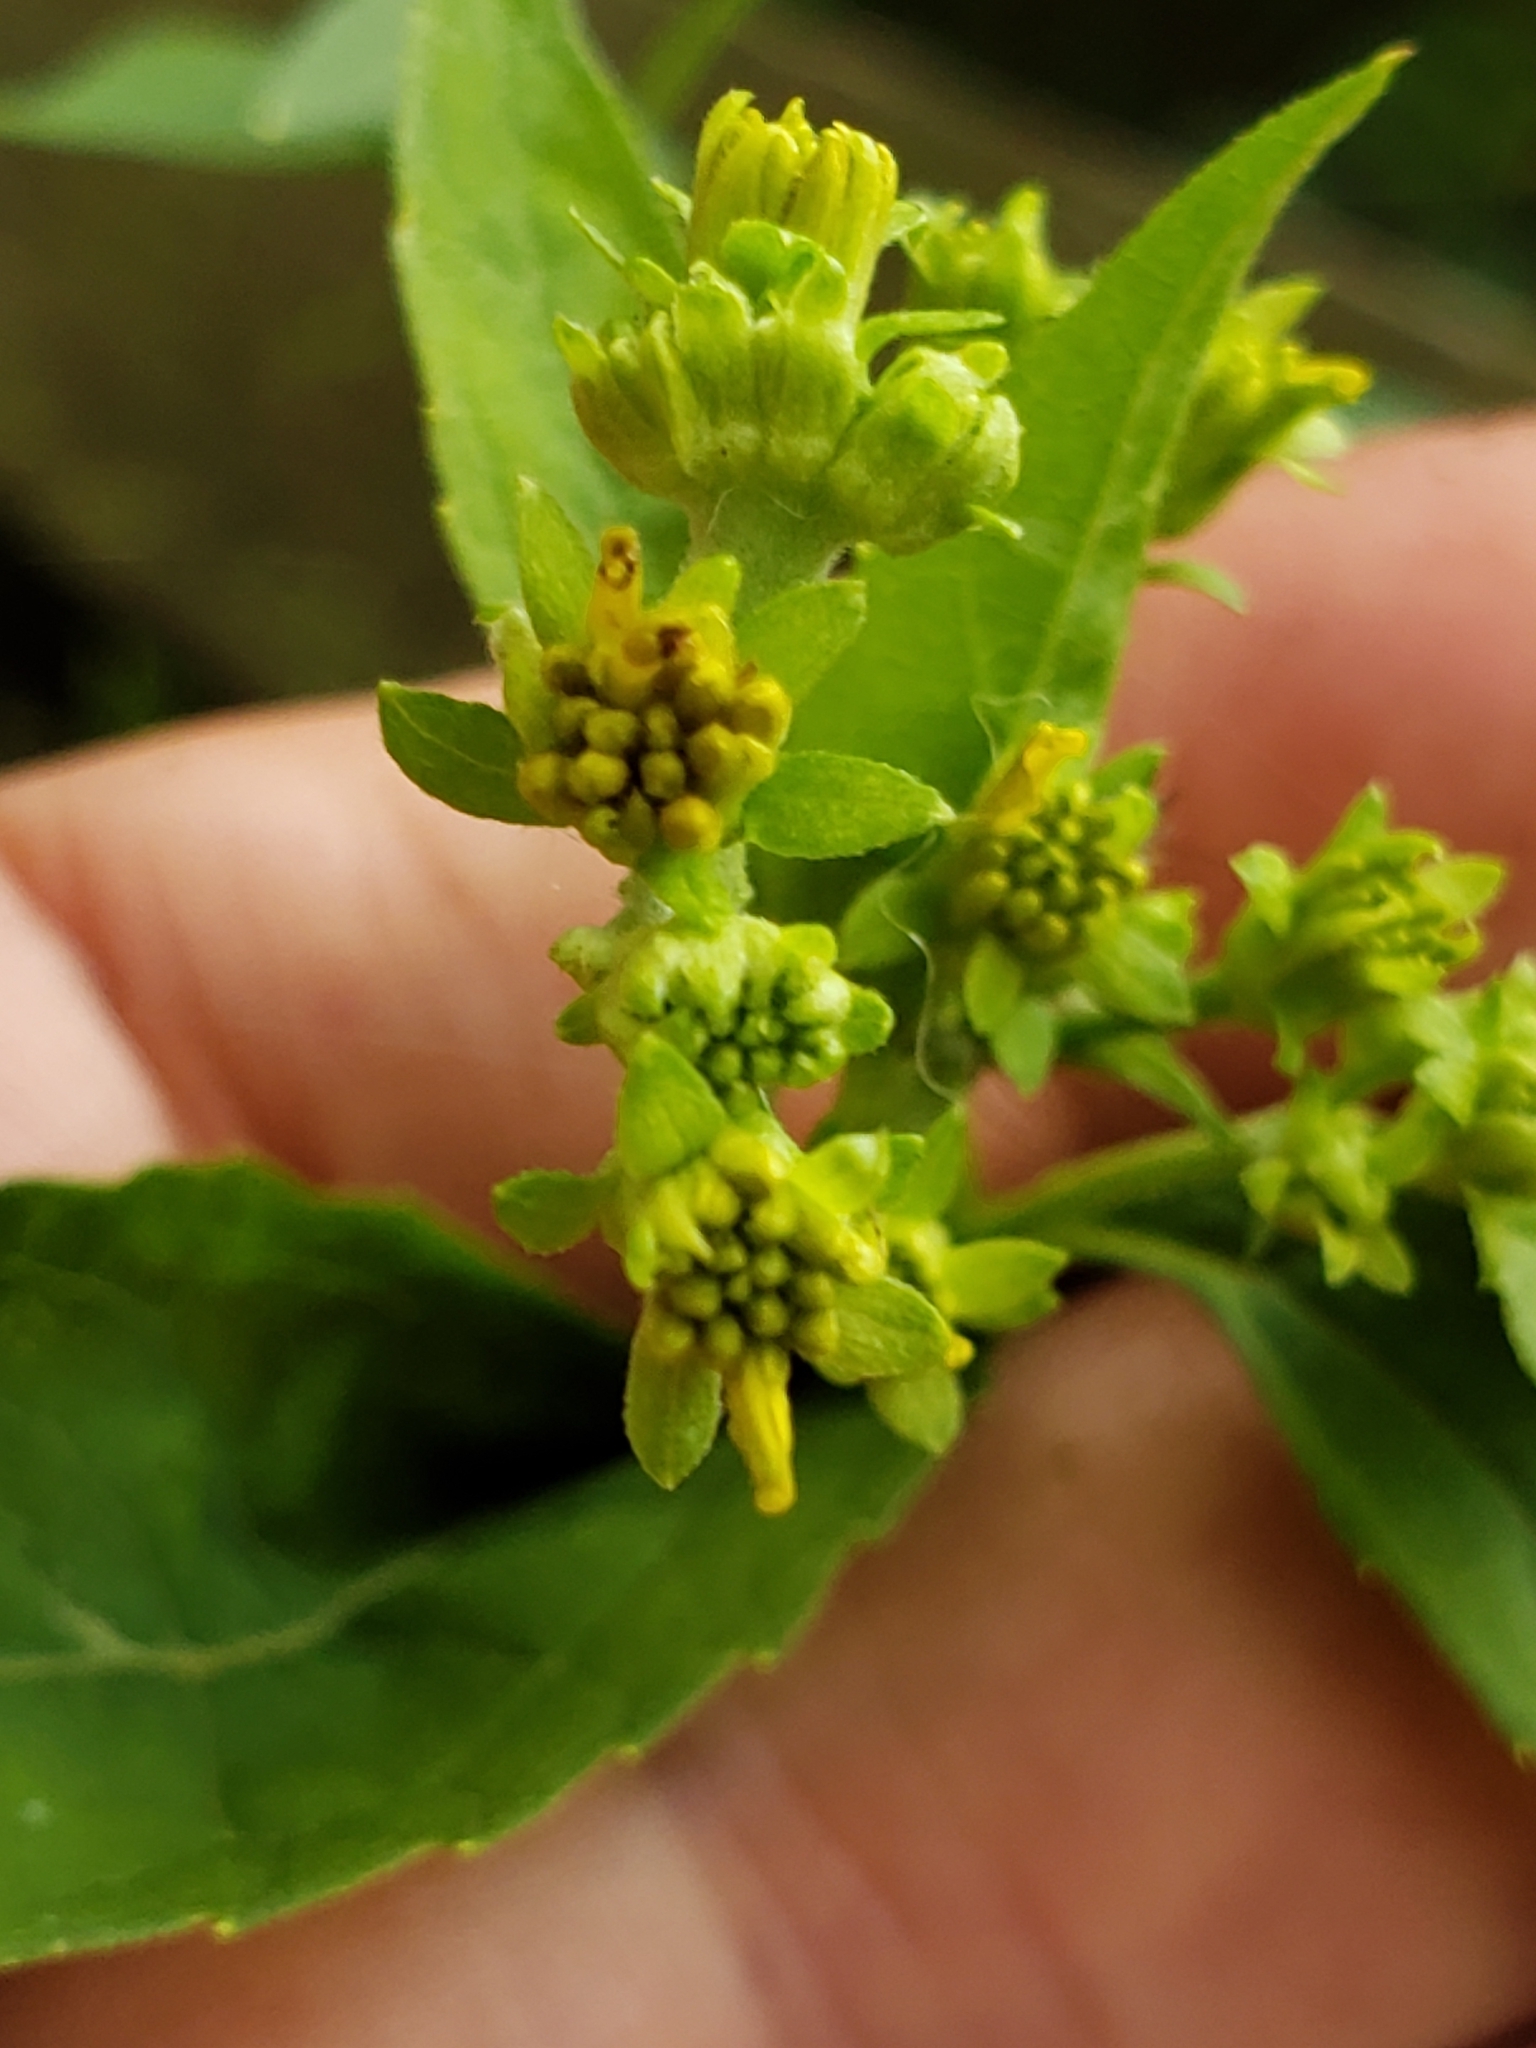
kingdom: Animalia
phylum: Arthropoda
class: Insecta
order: Diptera
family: Cecidomyiidae
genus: Neolasioptera
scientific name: Neolasioptera verbesinae
